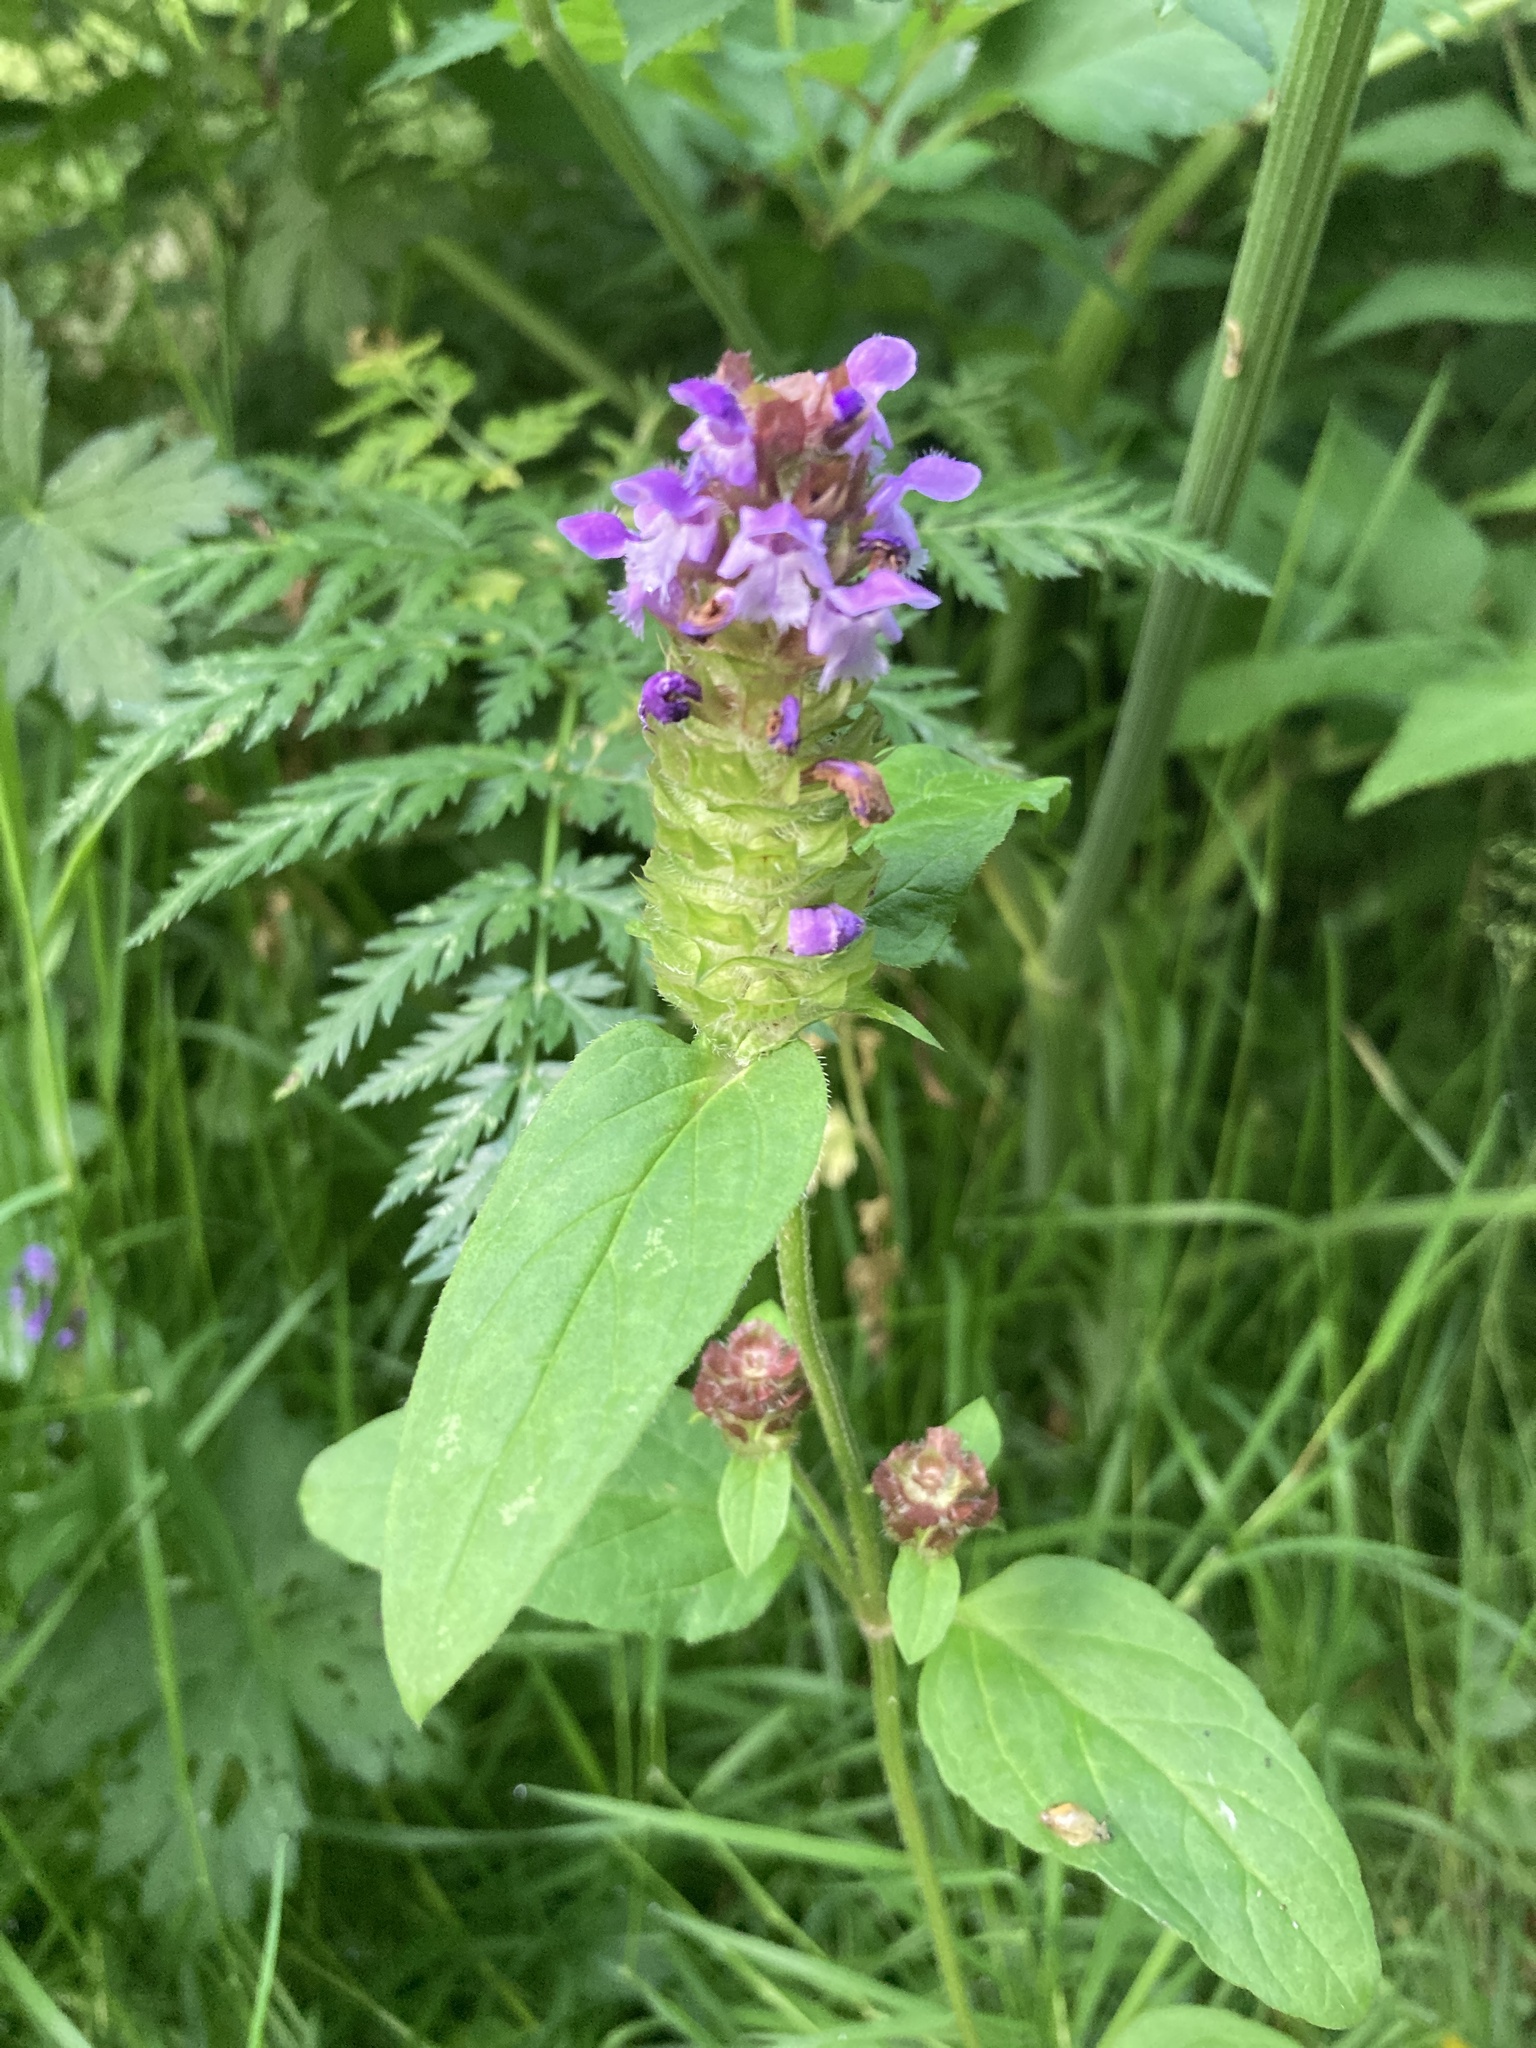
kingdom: Plantae
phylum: Tracheophyta
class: Magnoliopsida
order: Lamiales
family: Lamiaceae
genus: Prunella
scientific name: Prunella vulgaris
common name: Heal-all
